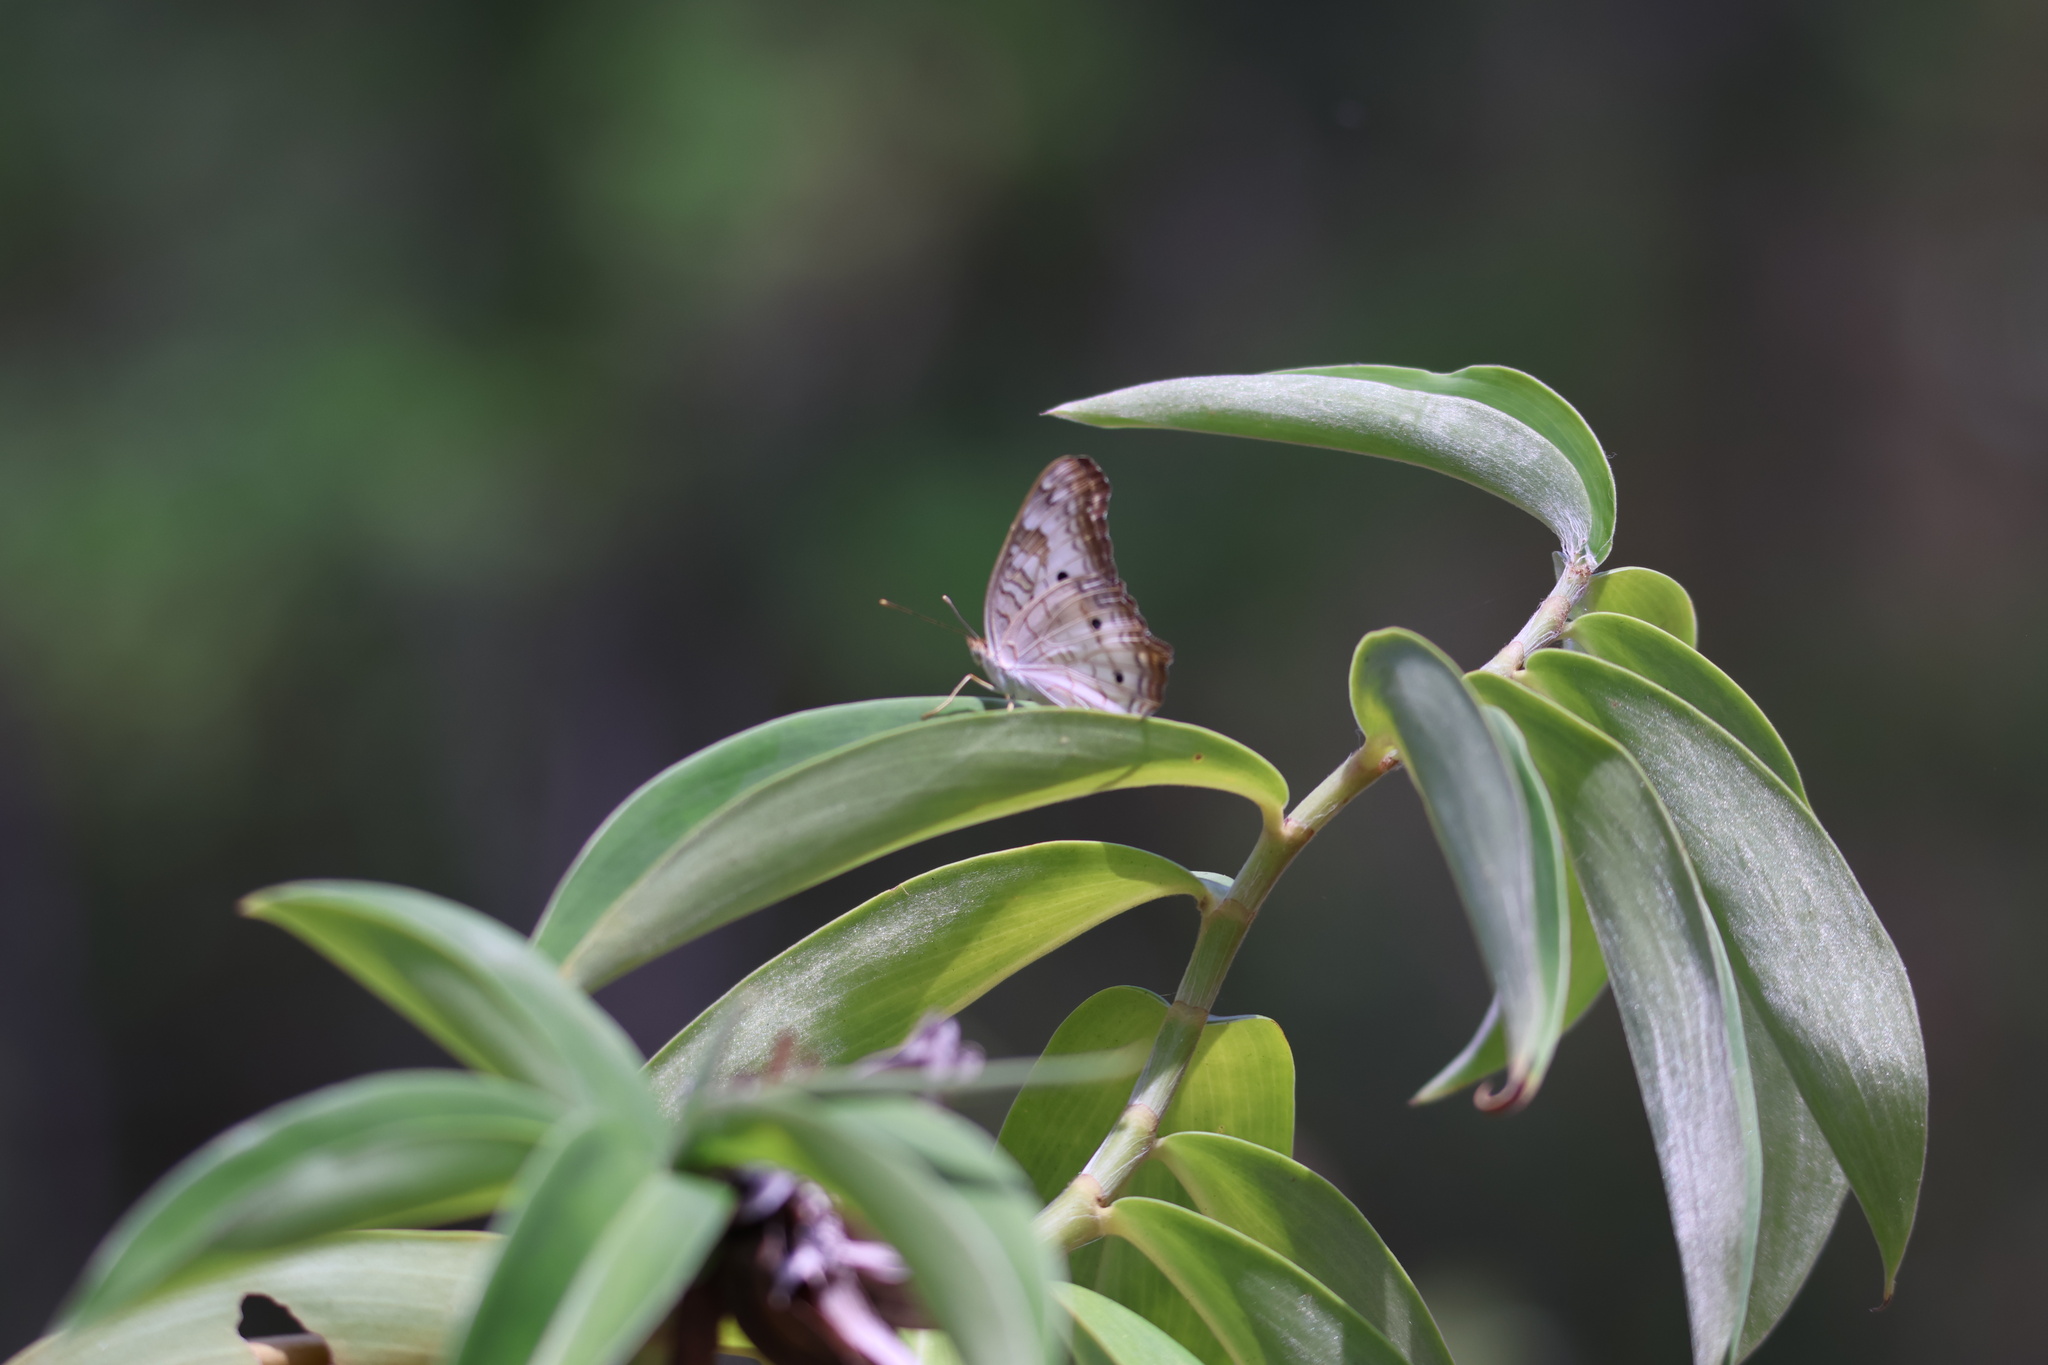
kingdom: Animalia
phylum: Arthropoda
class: Insecta
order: Lepidoptera
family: Nymphalidae
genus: Anartia
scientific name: Anartia jatrophae
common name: White peacock
